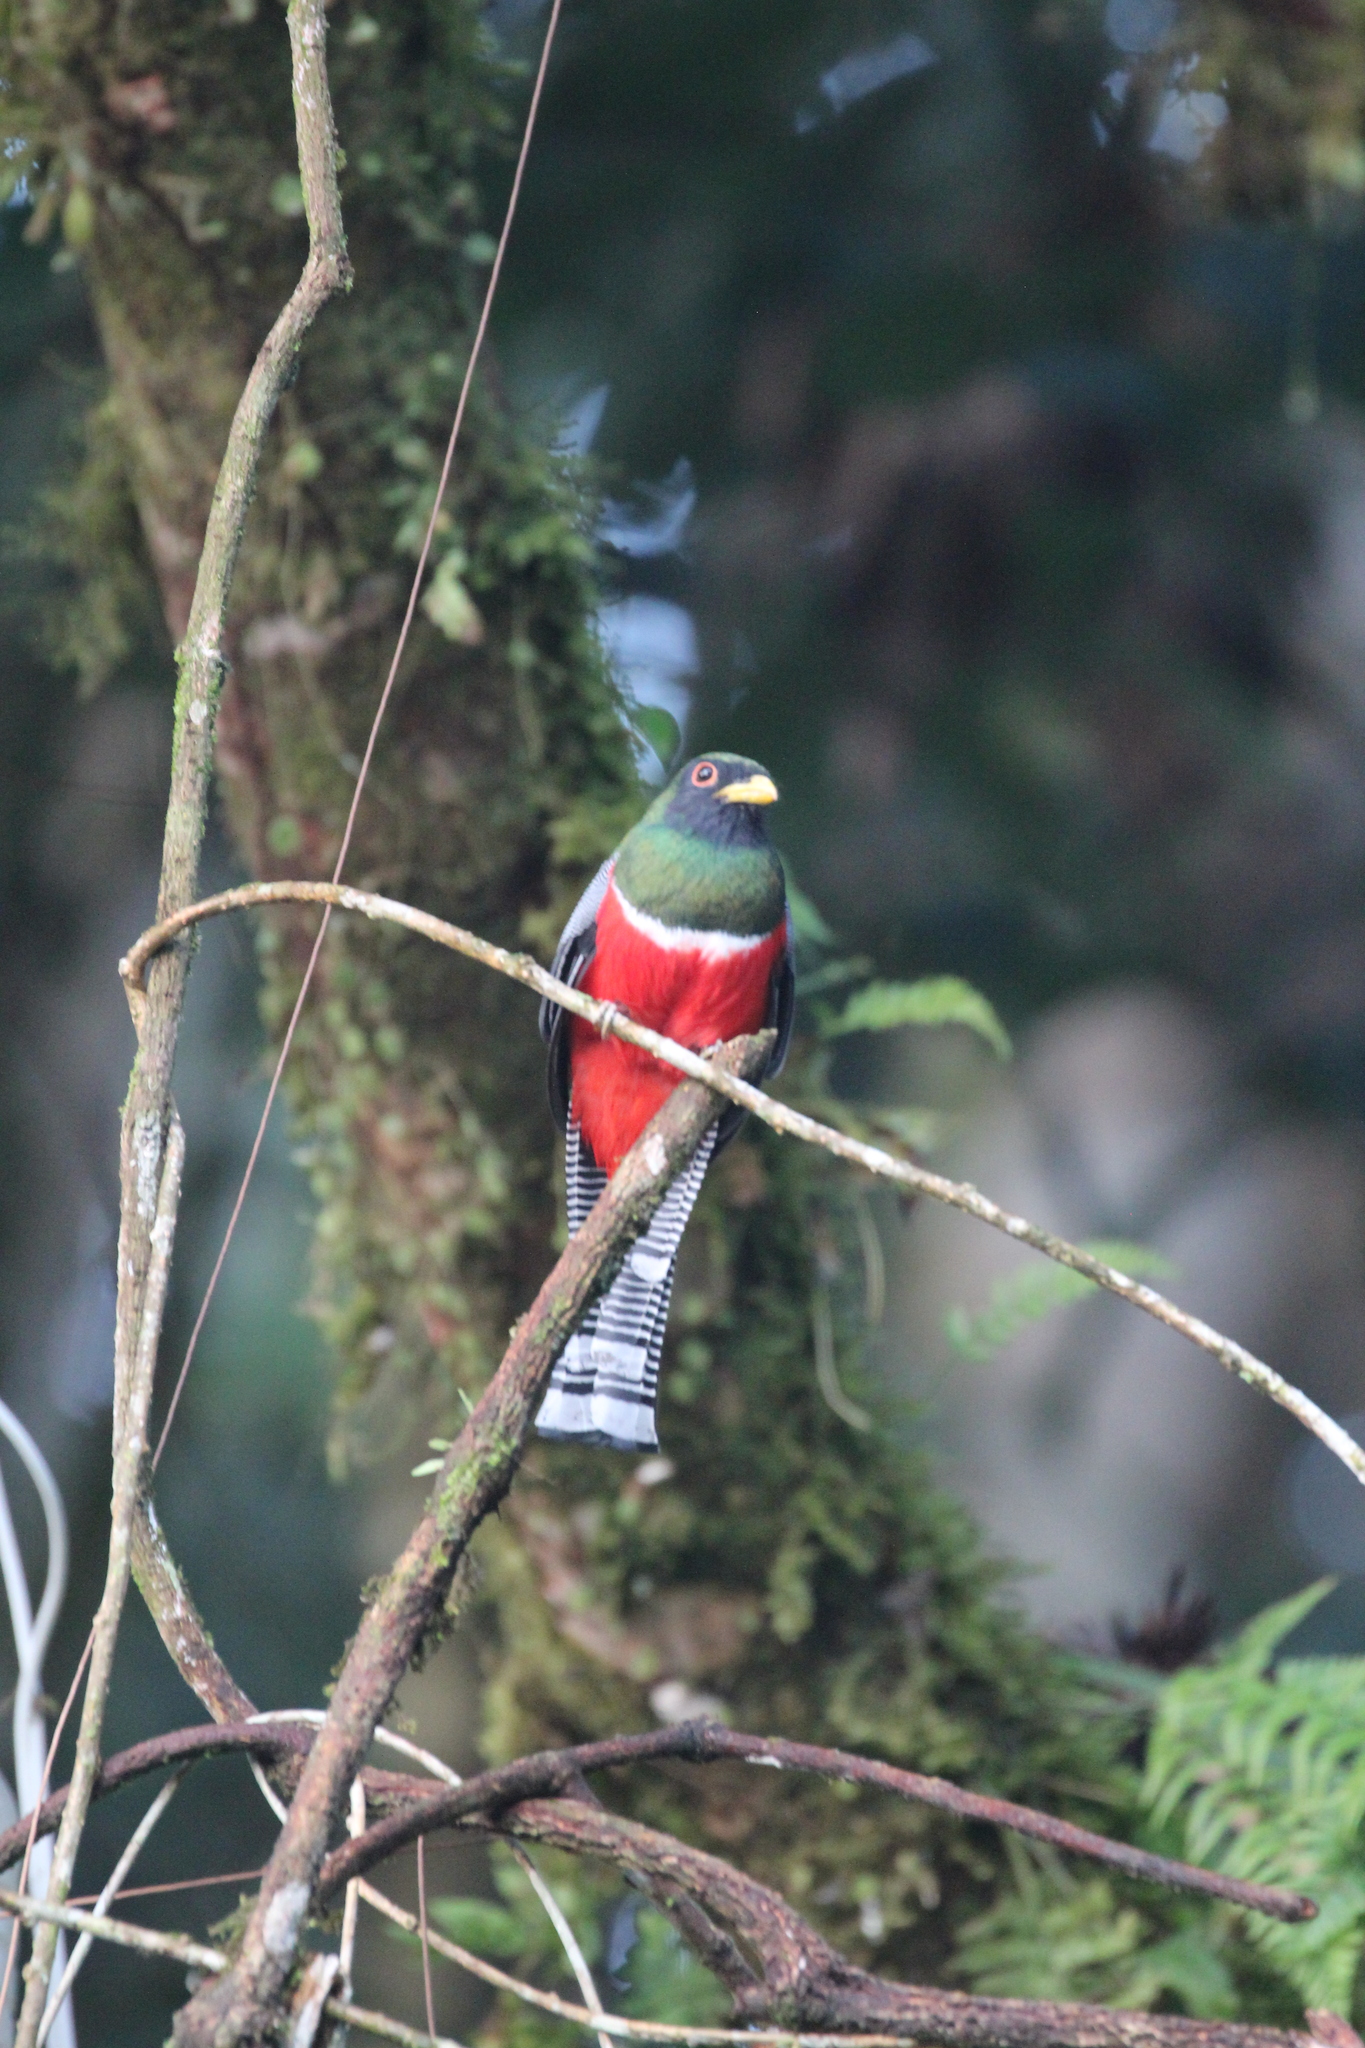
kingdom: Animalia
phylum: Chordata
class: Aves
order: Trogoniformes
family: Trogonidae
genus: Trogon
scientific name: Trogon collaris
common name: Collared trogon
